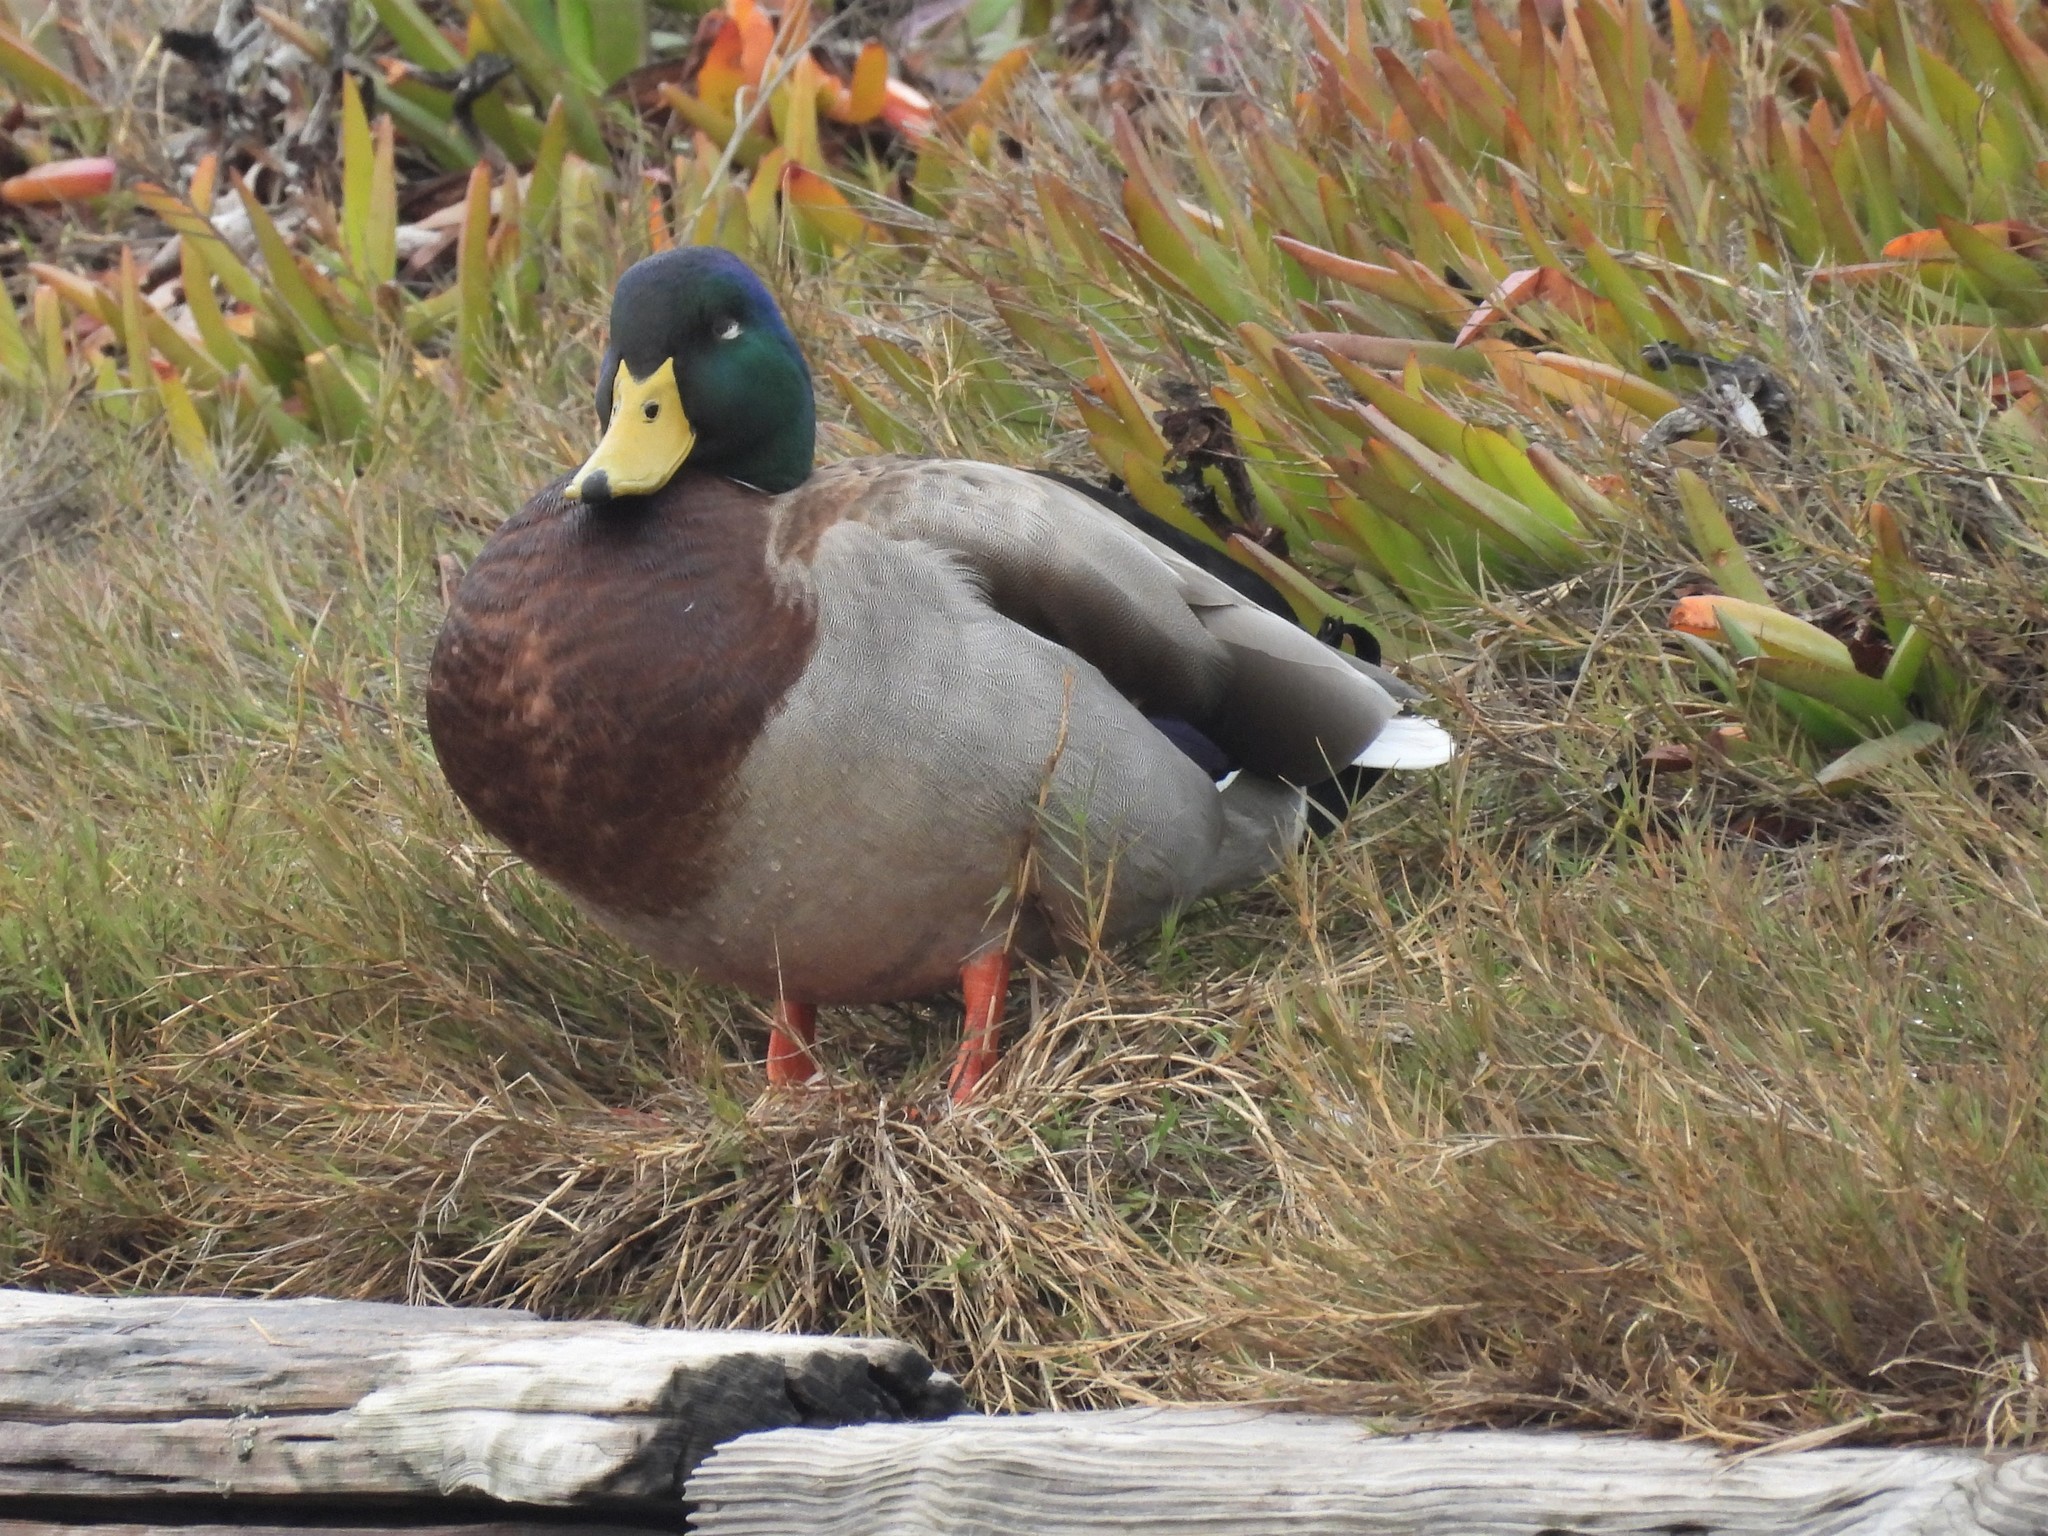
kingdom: Animalia
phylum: Chordata
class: Aves
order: Anseriformes
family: Anatidae
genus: Anas
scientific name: Anas platyrhynchos
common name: Mallard
